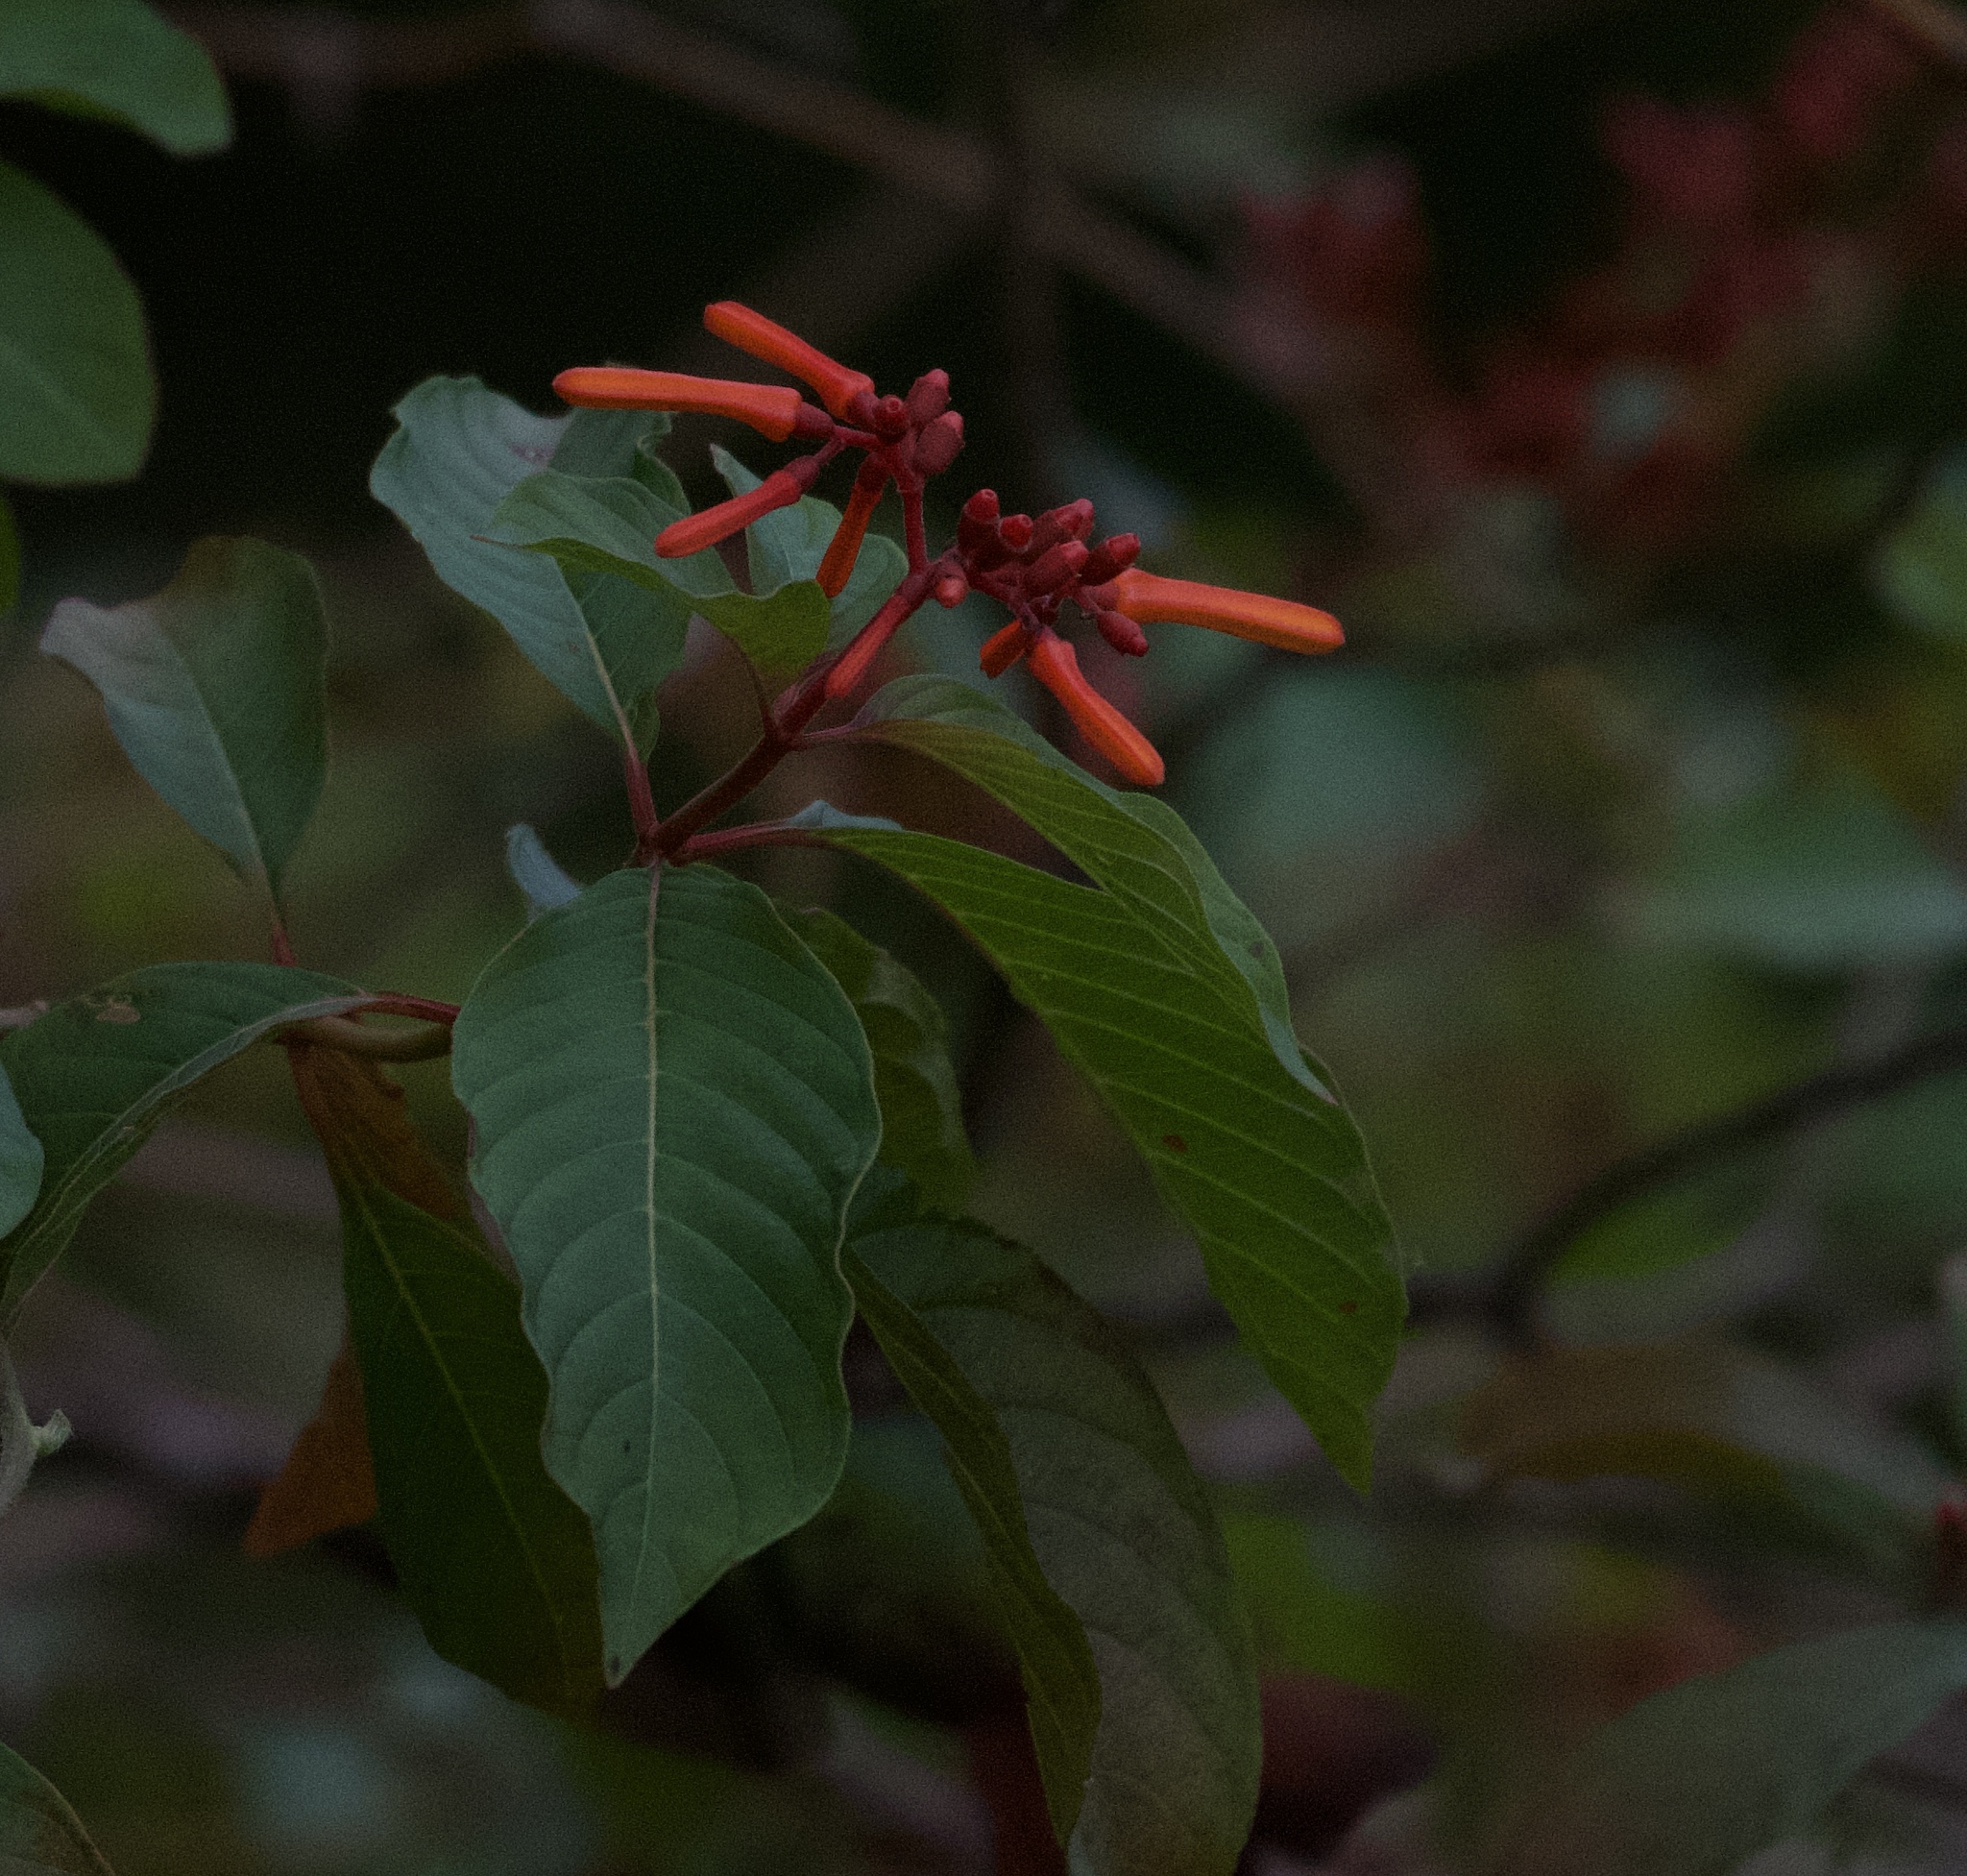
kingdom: Plantae
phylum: Tracheophyta
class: Magnoliopsida
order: Gentianales
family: Rubiaceae
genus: Hamelia
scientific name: Hamelia patens
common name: Redhead
